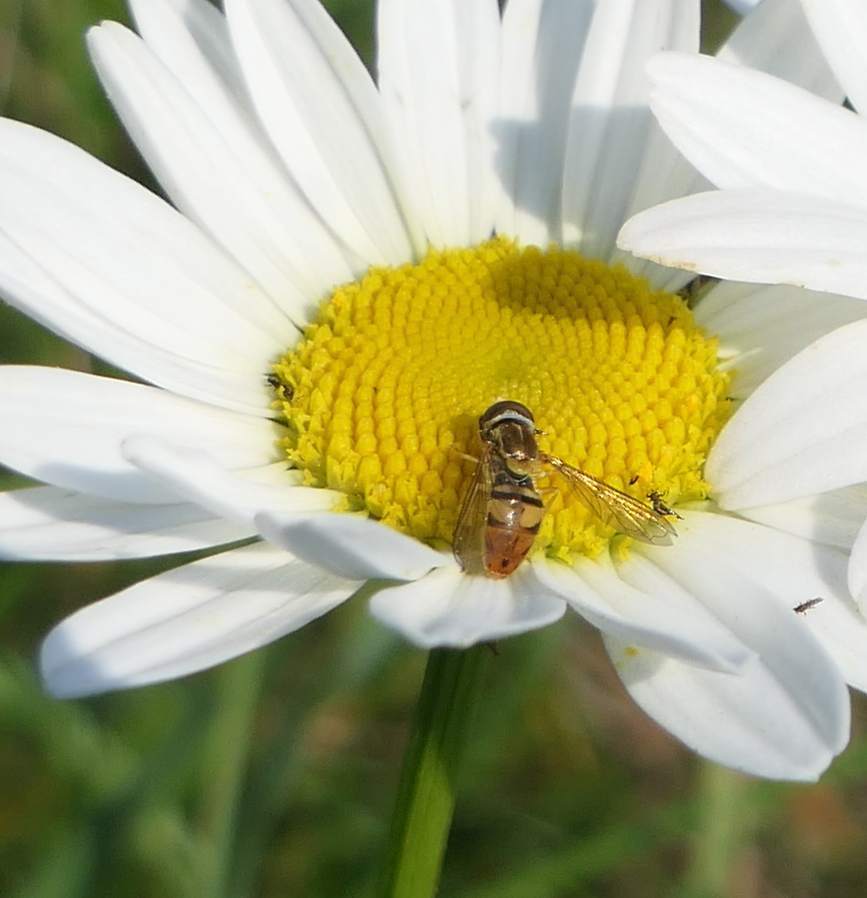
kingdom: Animalia
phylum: Arthropoda
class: Insecta
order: Diptera
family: Syrphidae
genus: Toxomerus
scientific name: Toxomerus marginatus
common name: Syrphid fly
